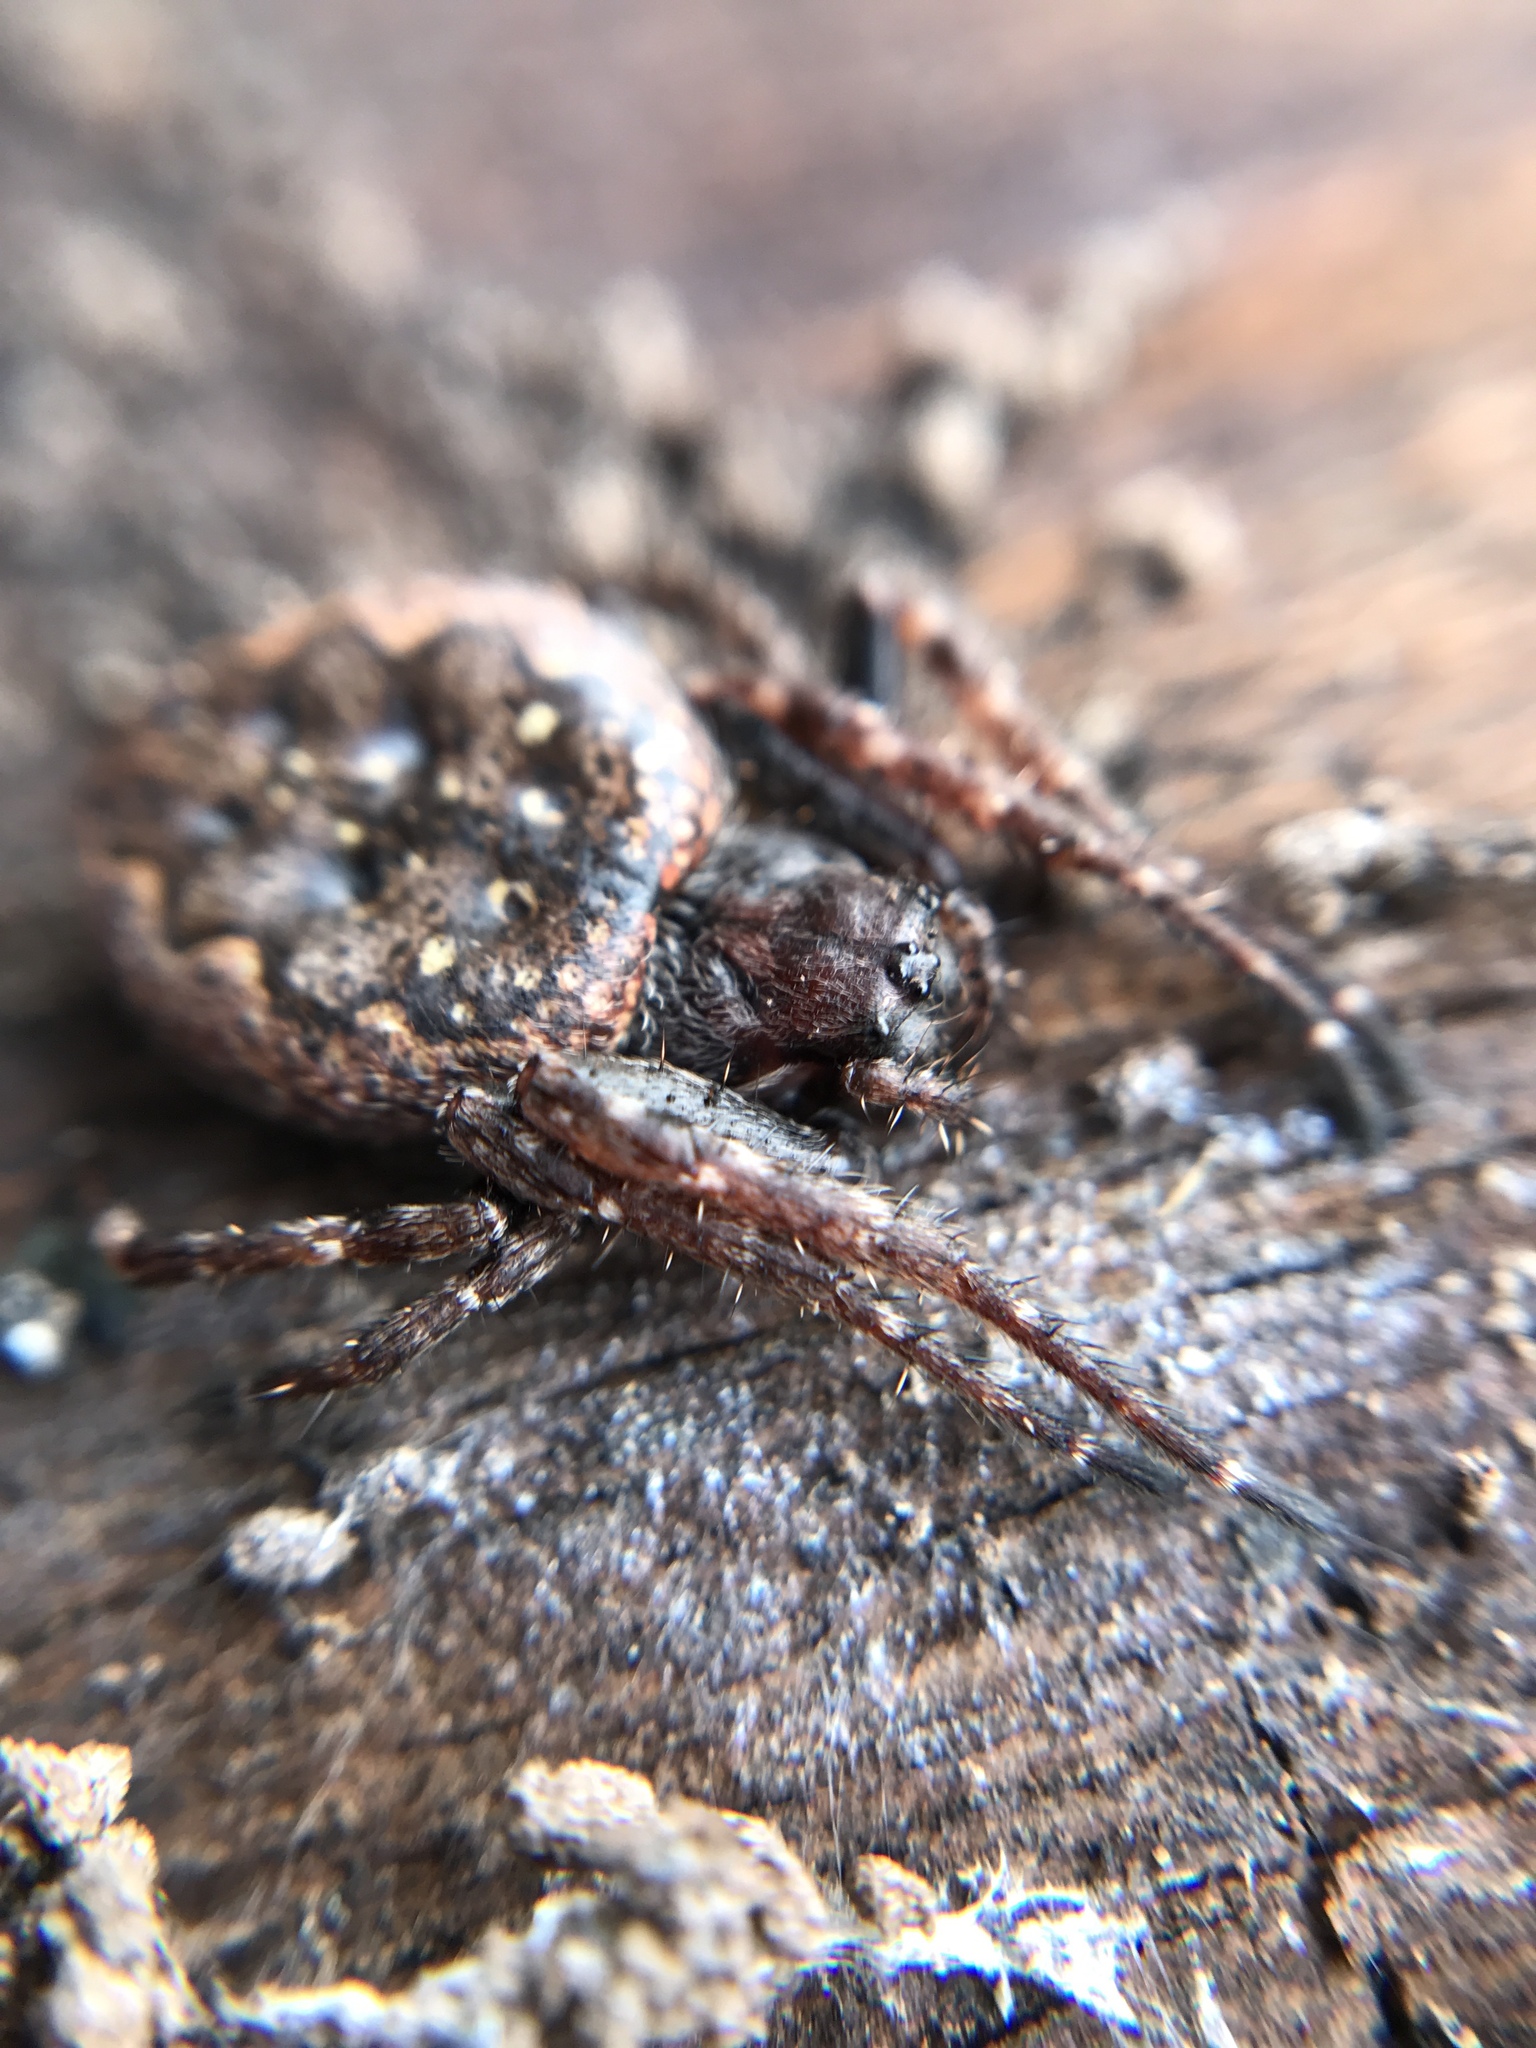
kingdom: Animalia
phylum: Arthropoda
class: Arachnida
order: Araneae
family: Araneidae
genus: Nuctenea
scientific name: Nuctenea umbratica
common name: Toad spider
